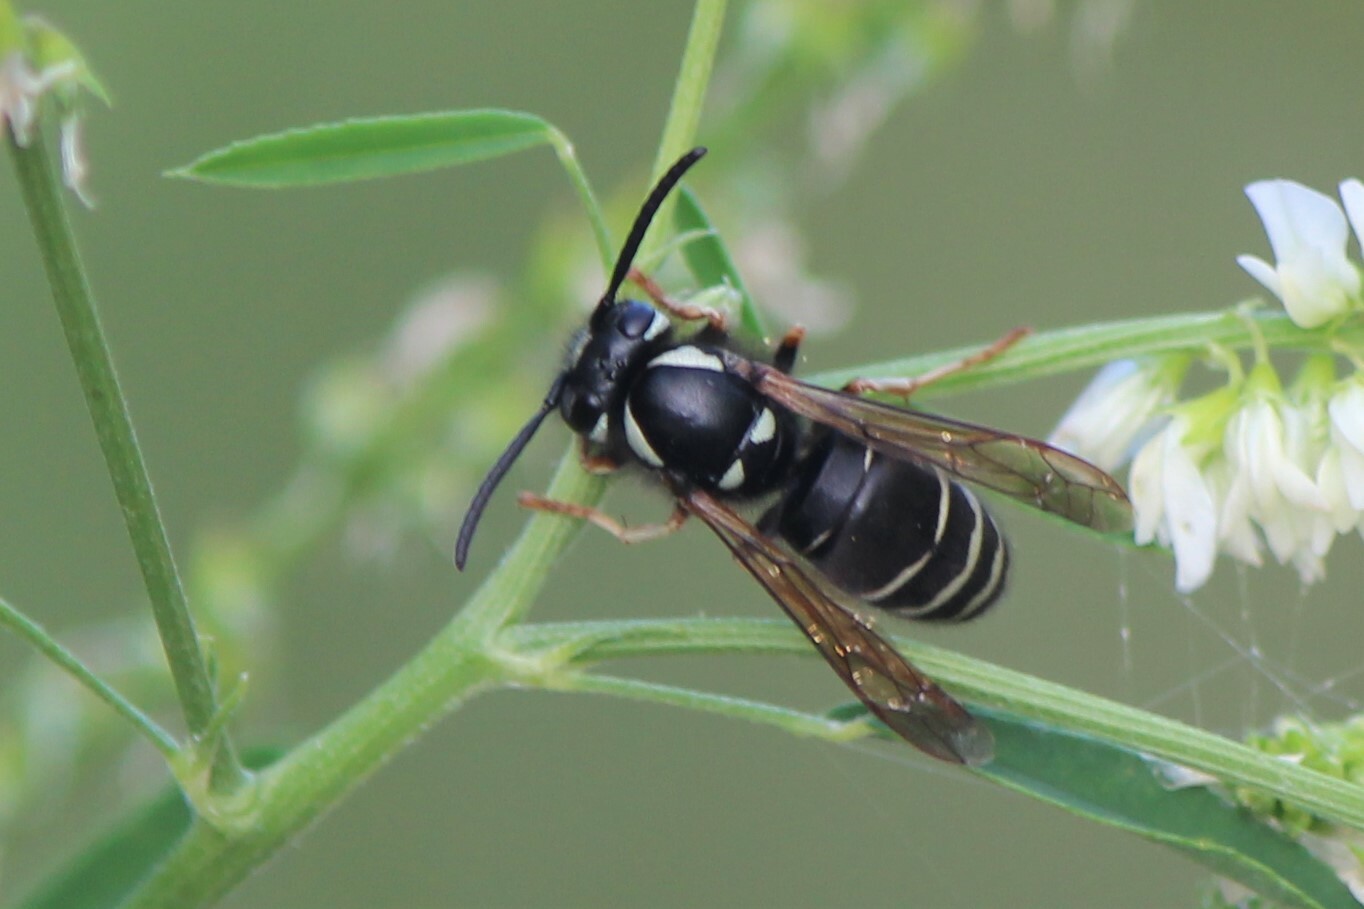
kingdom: Animalia
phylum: Arthropoda
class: Insecta
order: Hymenoptera
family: Vespidae
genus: Vespula
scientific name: Vespula consobrina
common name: Blackjacket
